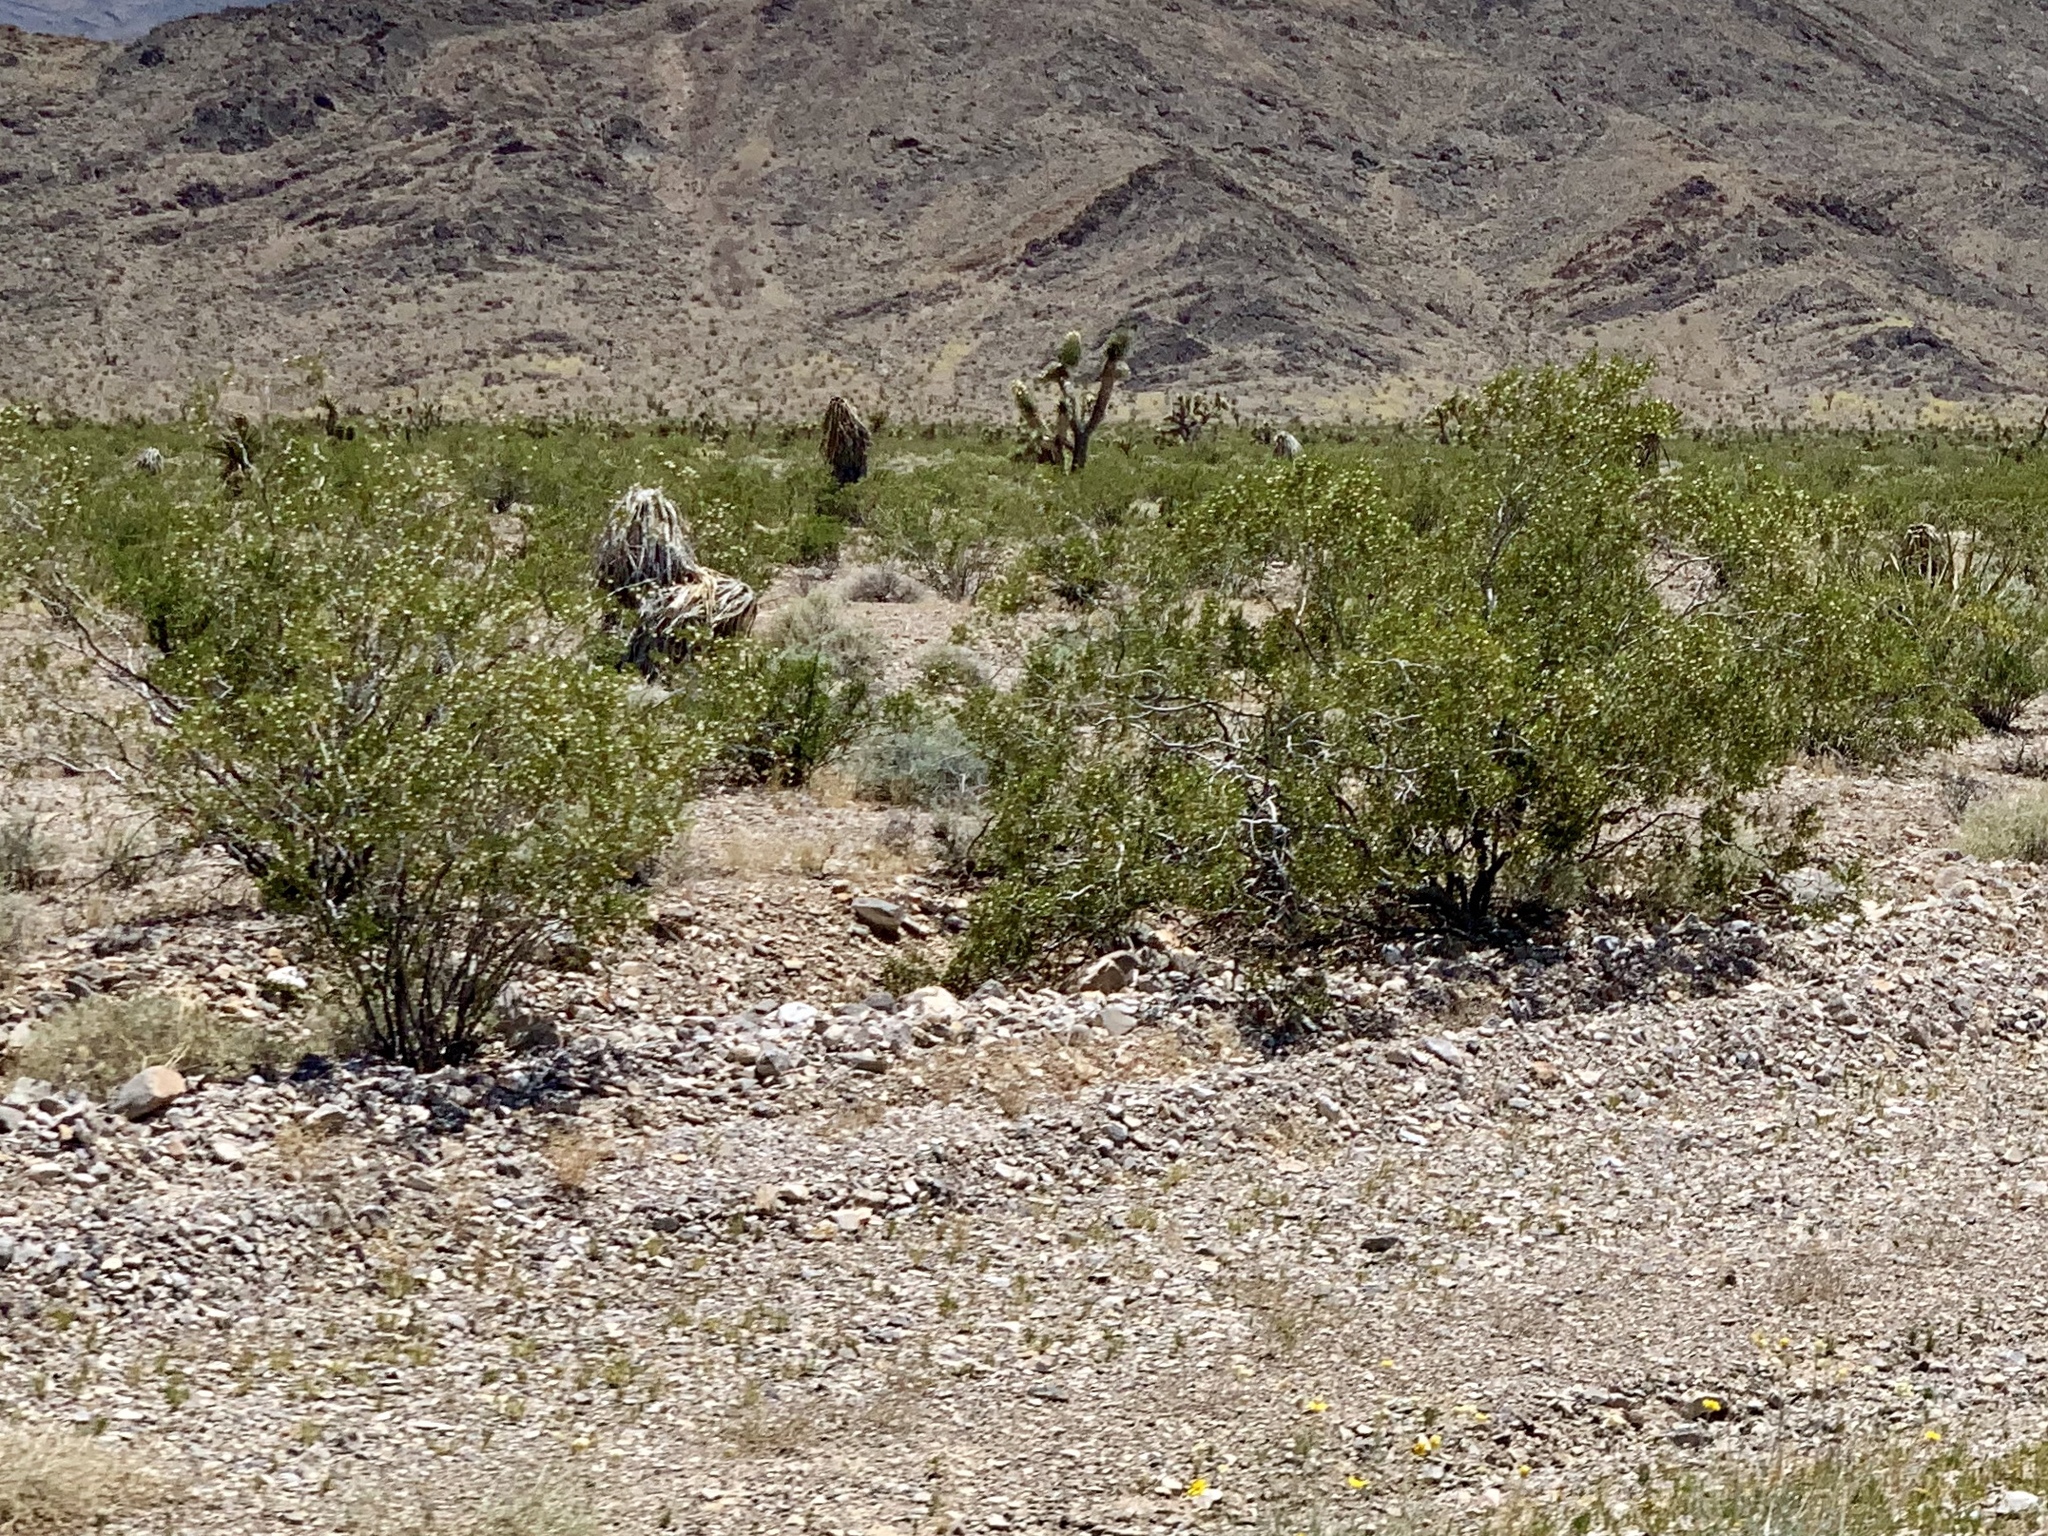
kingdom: Plantae
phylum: Tracheophyta
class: Magnoliopsida
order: Zygophyllales
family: Zygophyllaceae
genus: Larrea
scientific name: Larrea tridentata
